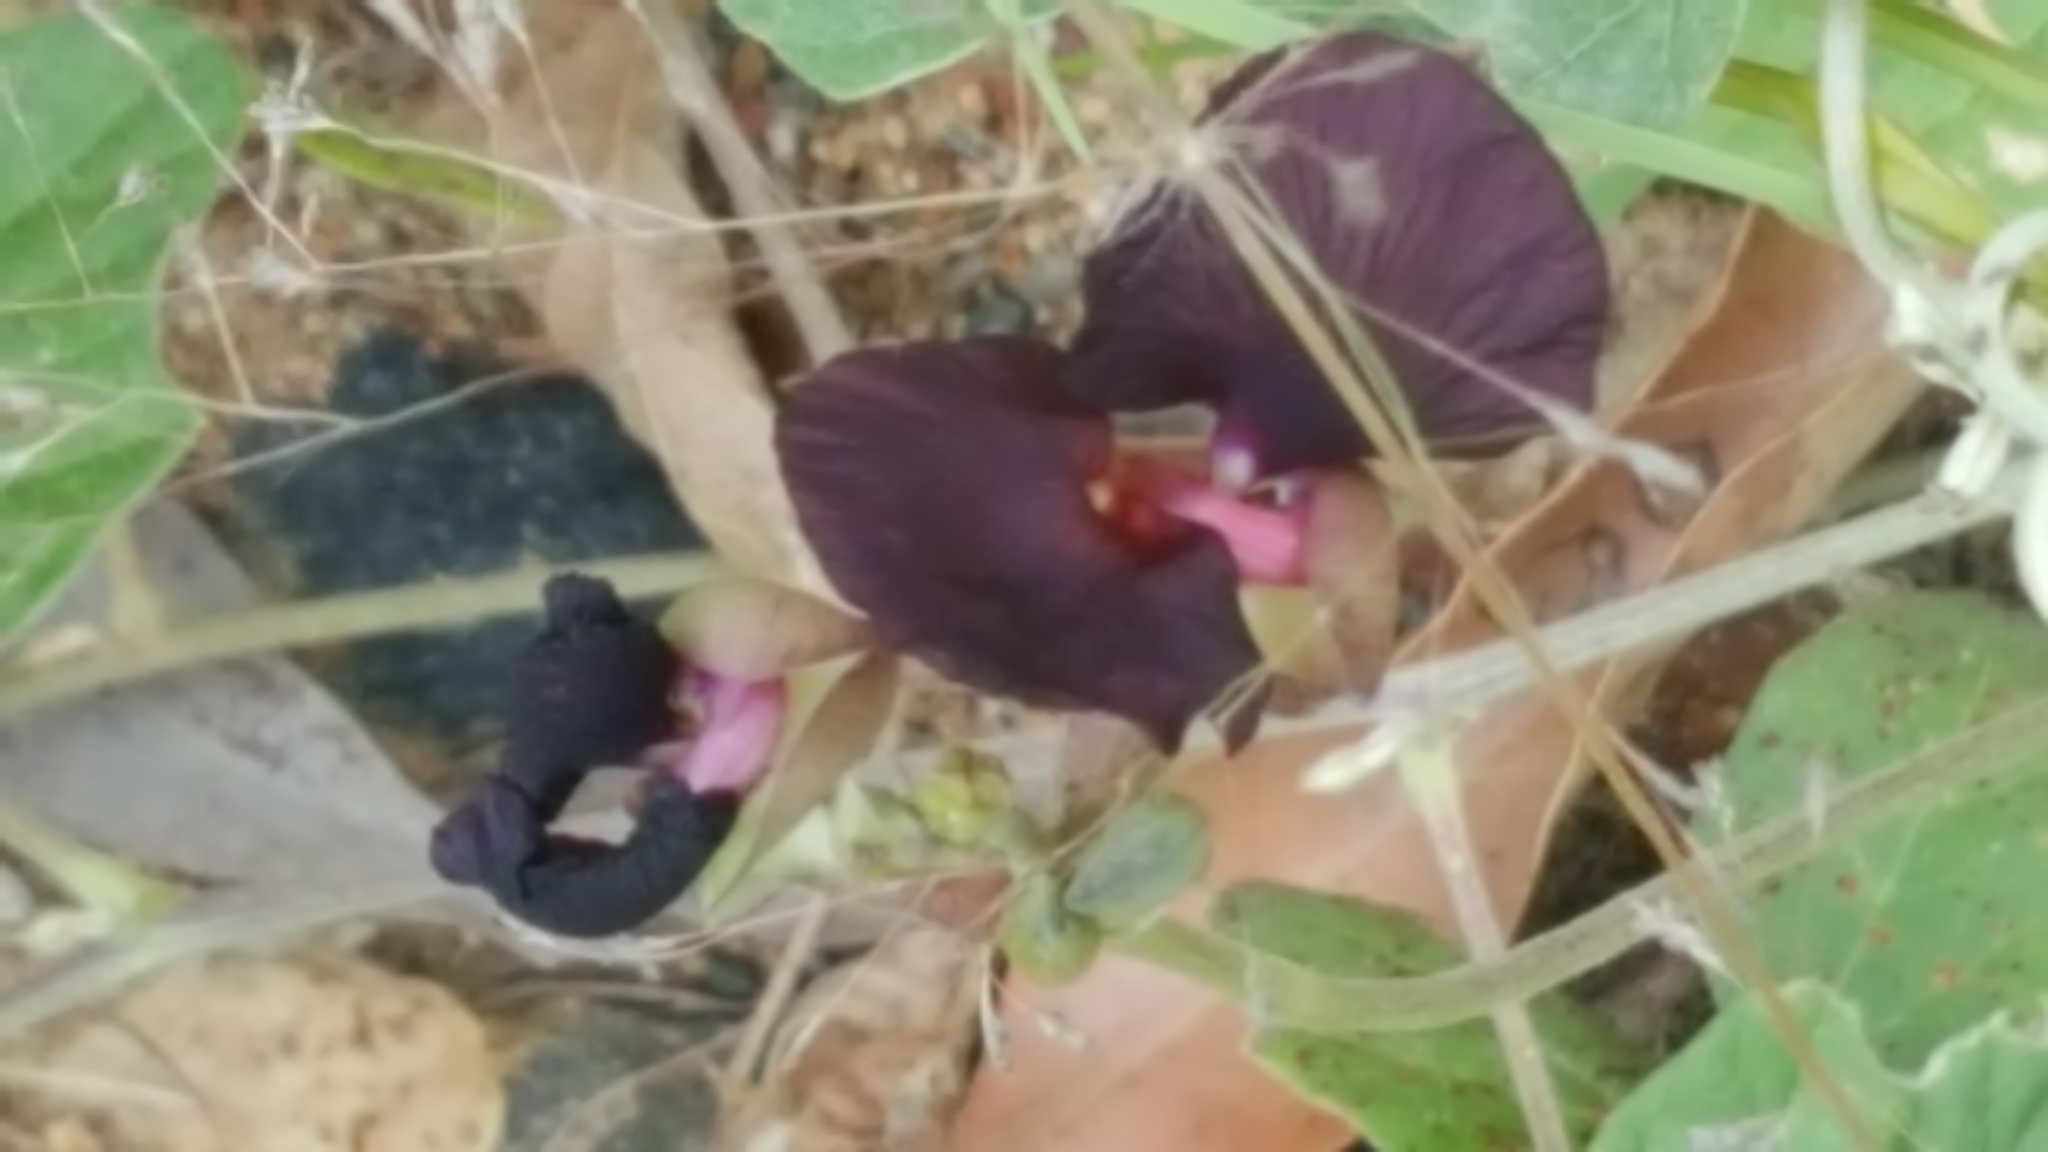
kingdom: Plantae
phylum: Tracheophyta
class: Magnoliopsida
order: Fabales
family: Fabaceae
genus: Macroptilium
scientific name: Macroptilium atropurpureum
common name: Purple bushbean
